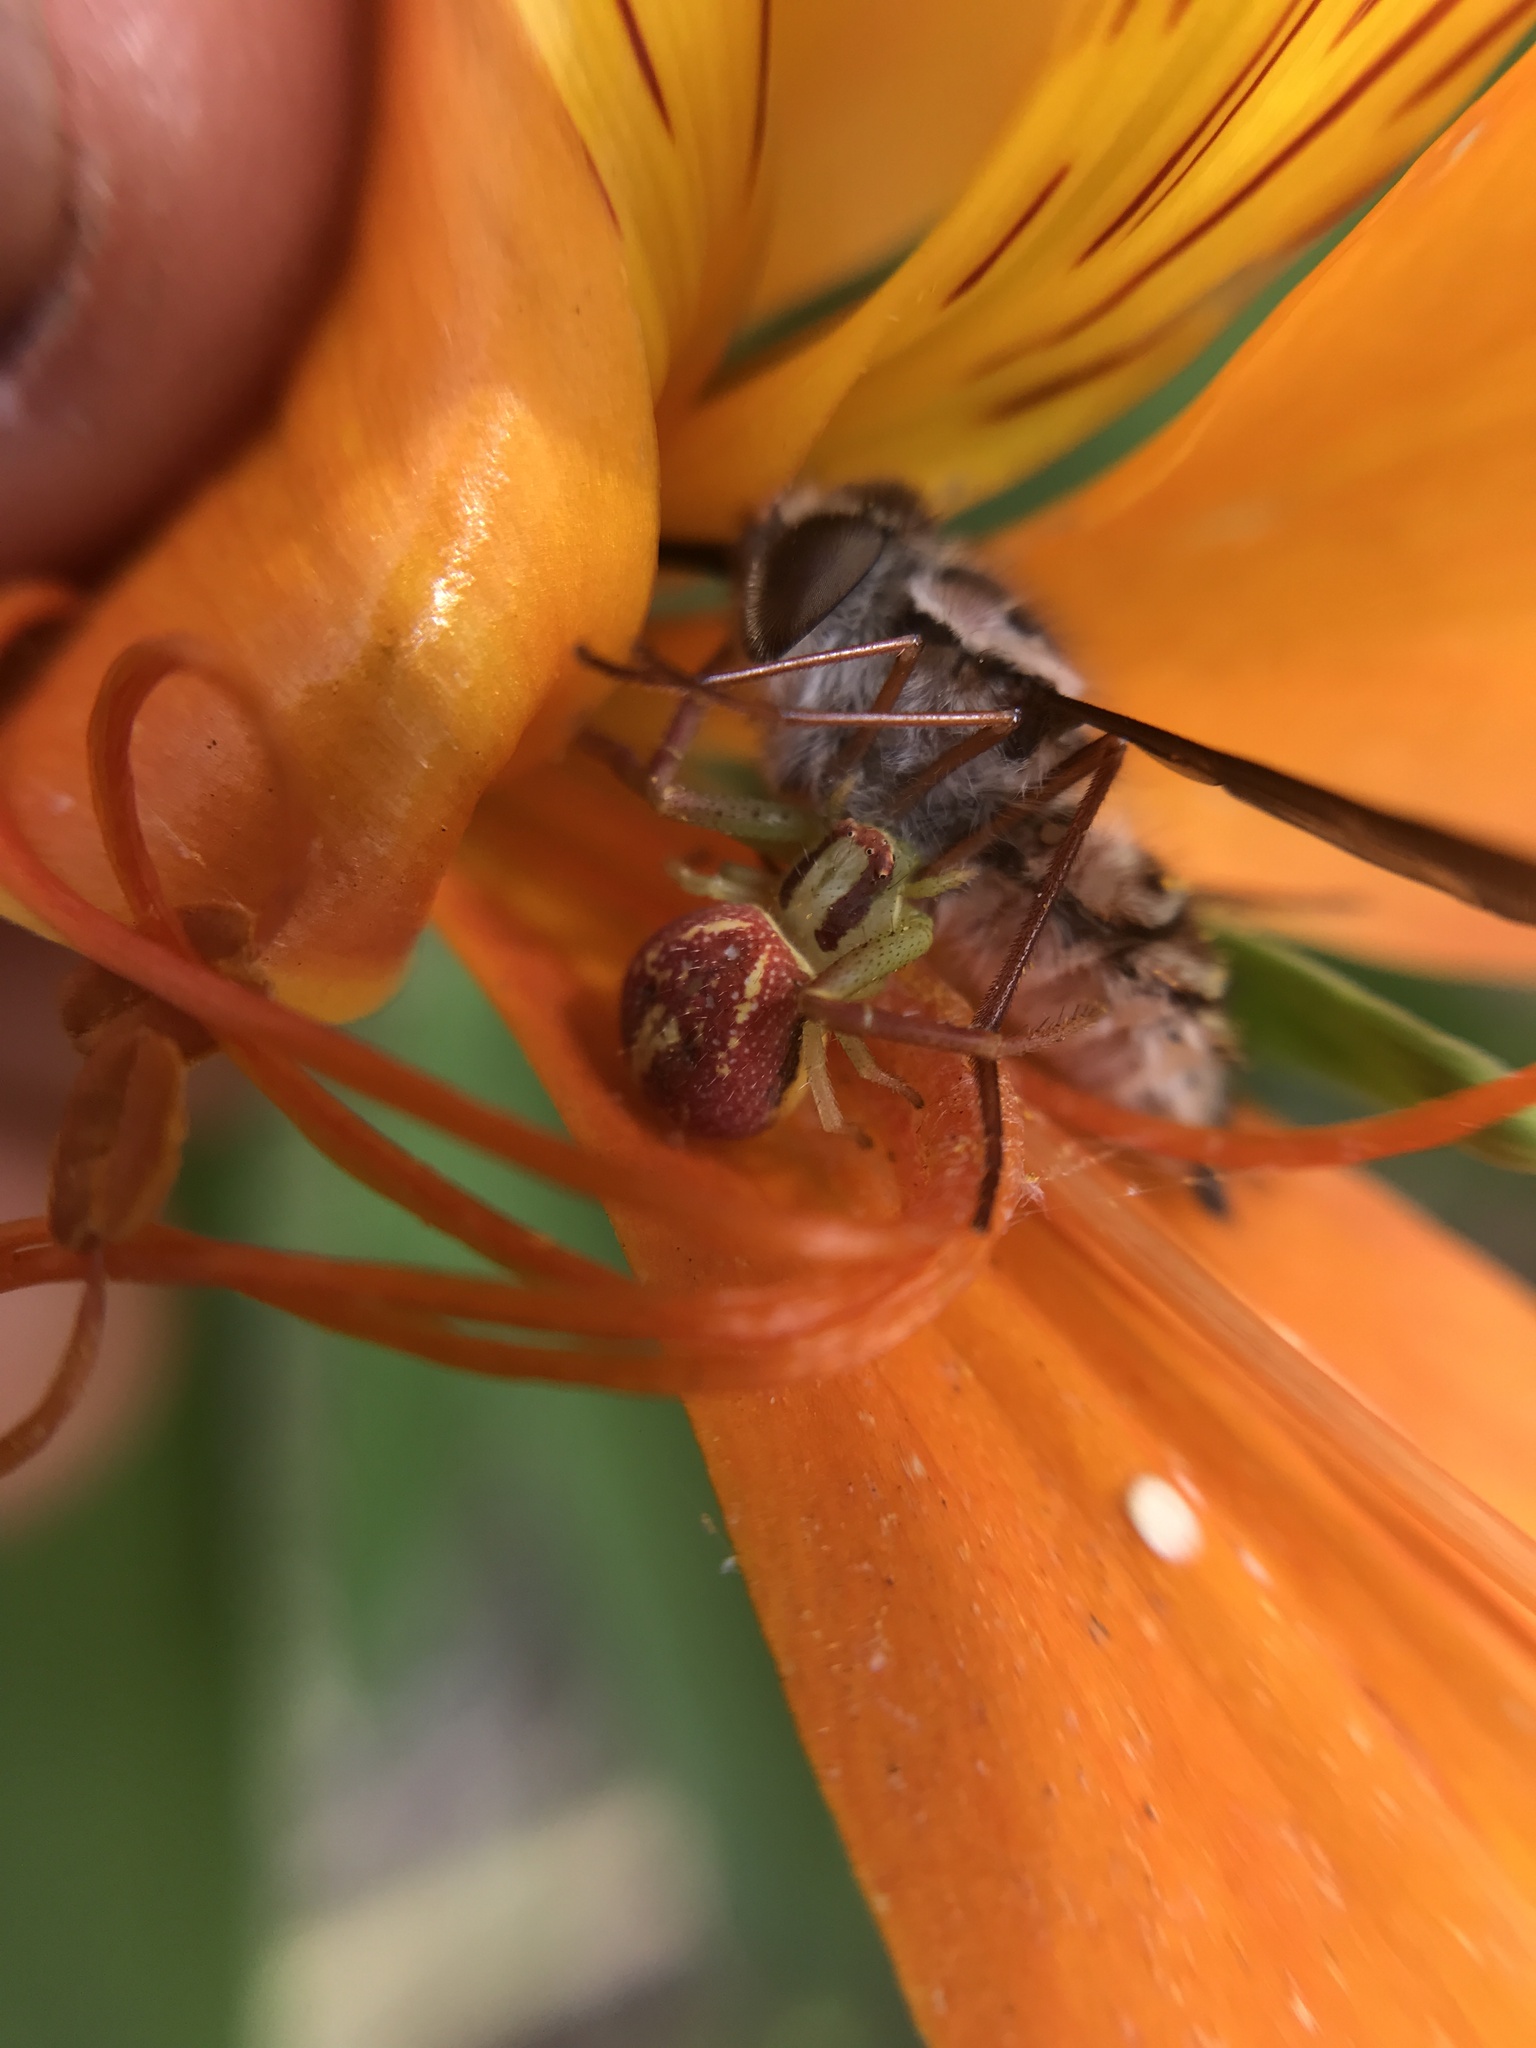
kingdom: Animalia
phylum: Arthropoda
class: Arachnida
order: Araneae
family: Thomisidae
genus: Misumenops
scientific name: Misumenops
